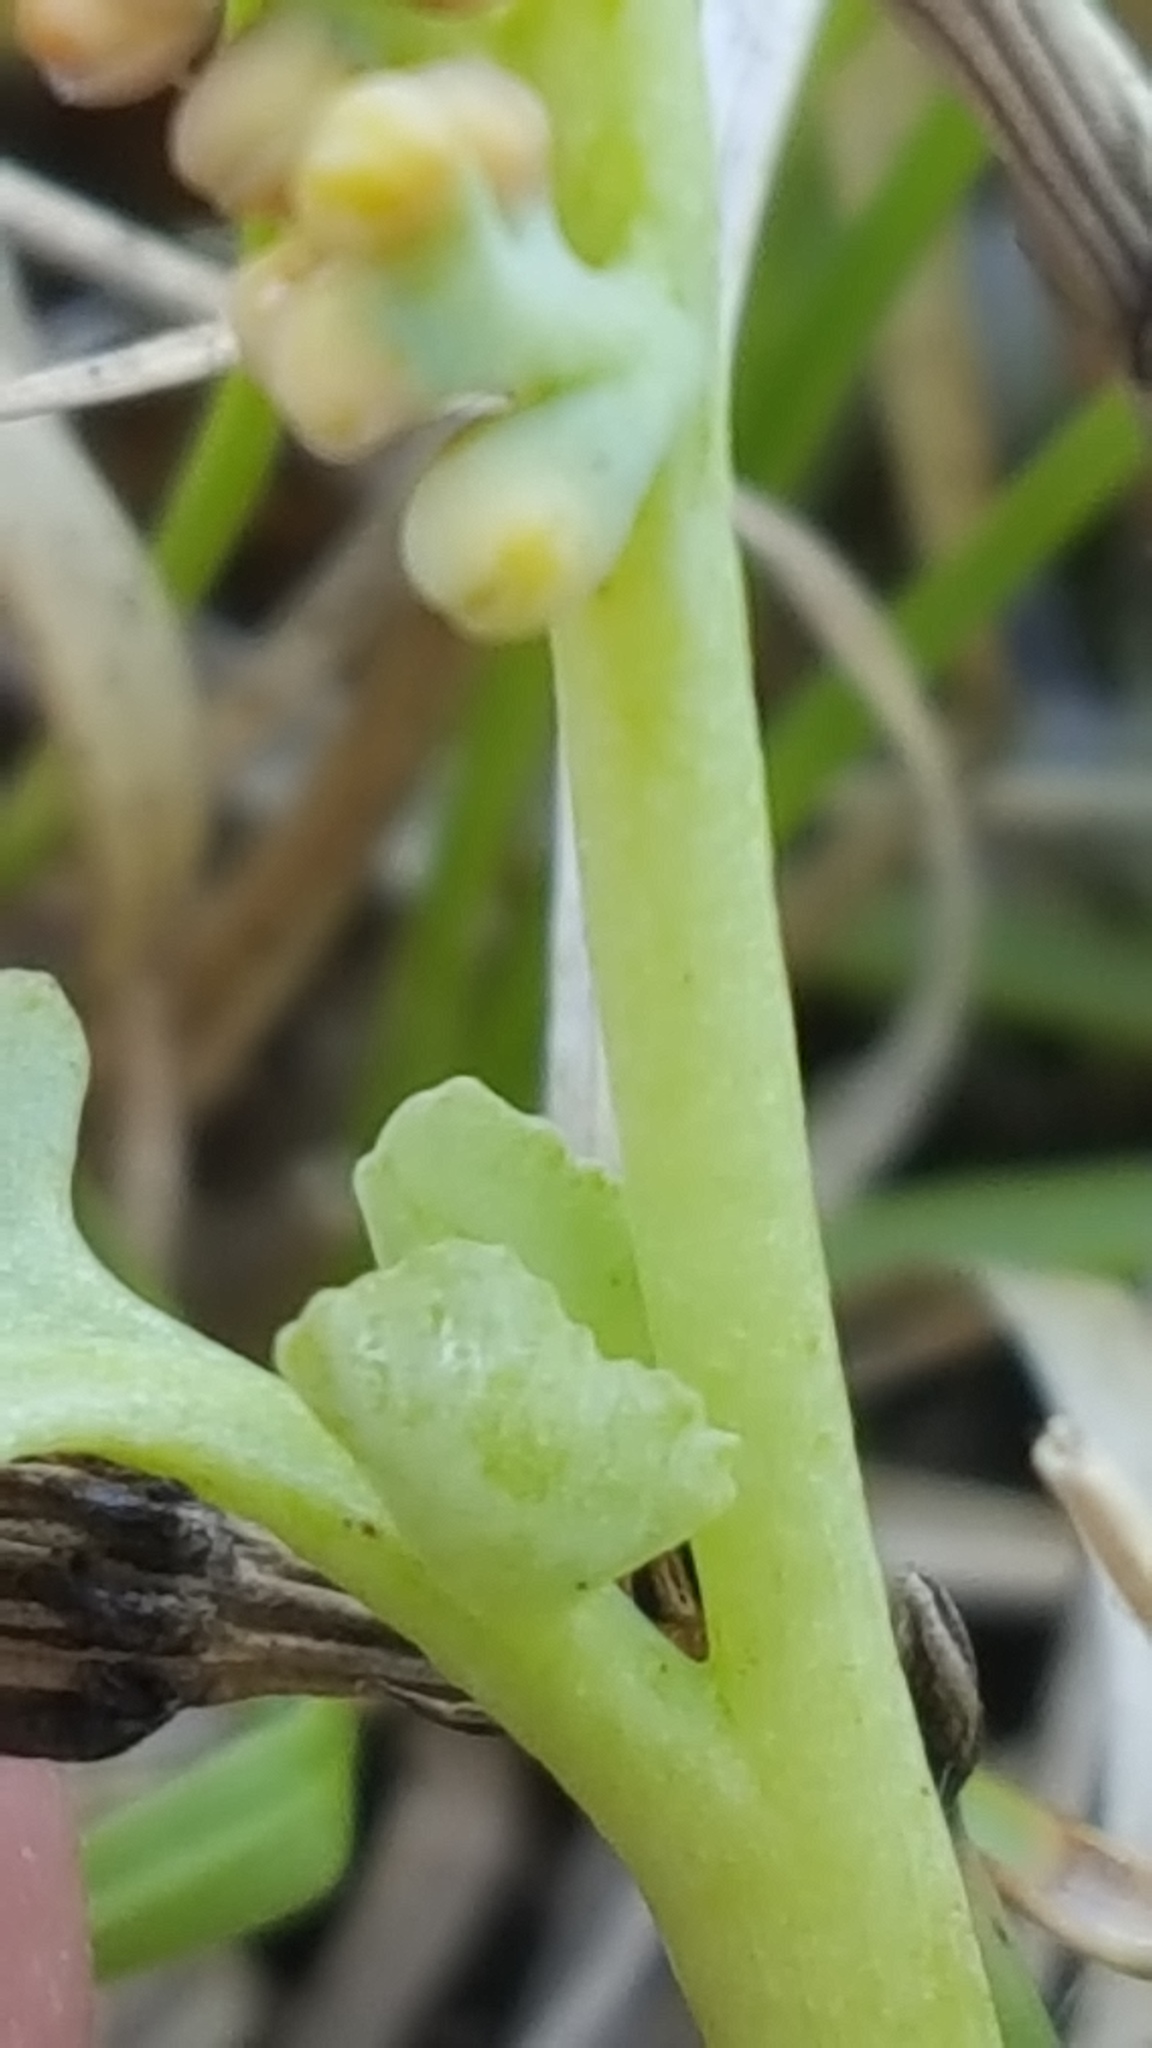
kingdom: Plantae
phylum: Tracheophyta
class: Polypodiopsida
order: Ophioglossales
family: Ophioglossaceae
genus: Botrychium
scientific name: Botrychium pallidum
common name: Pale moonwort
